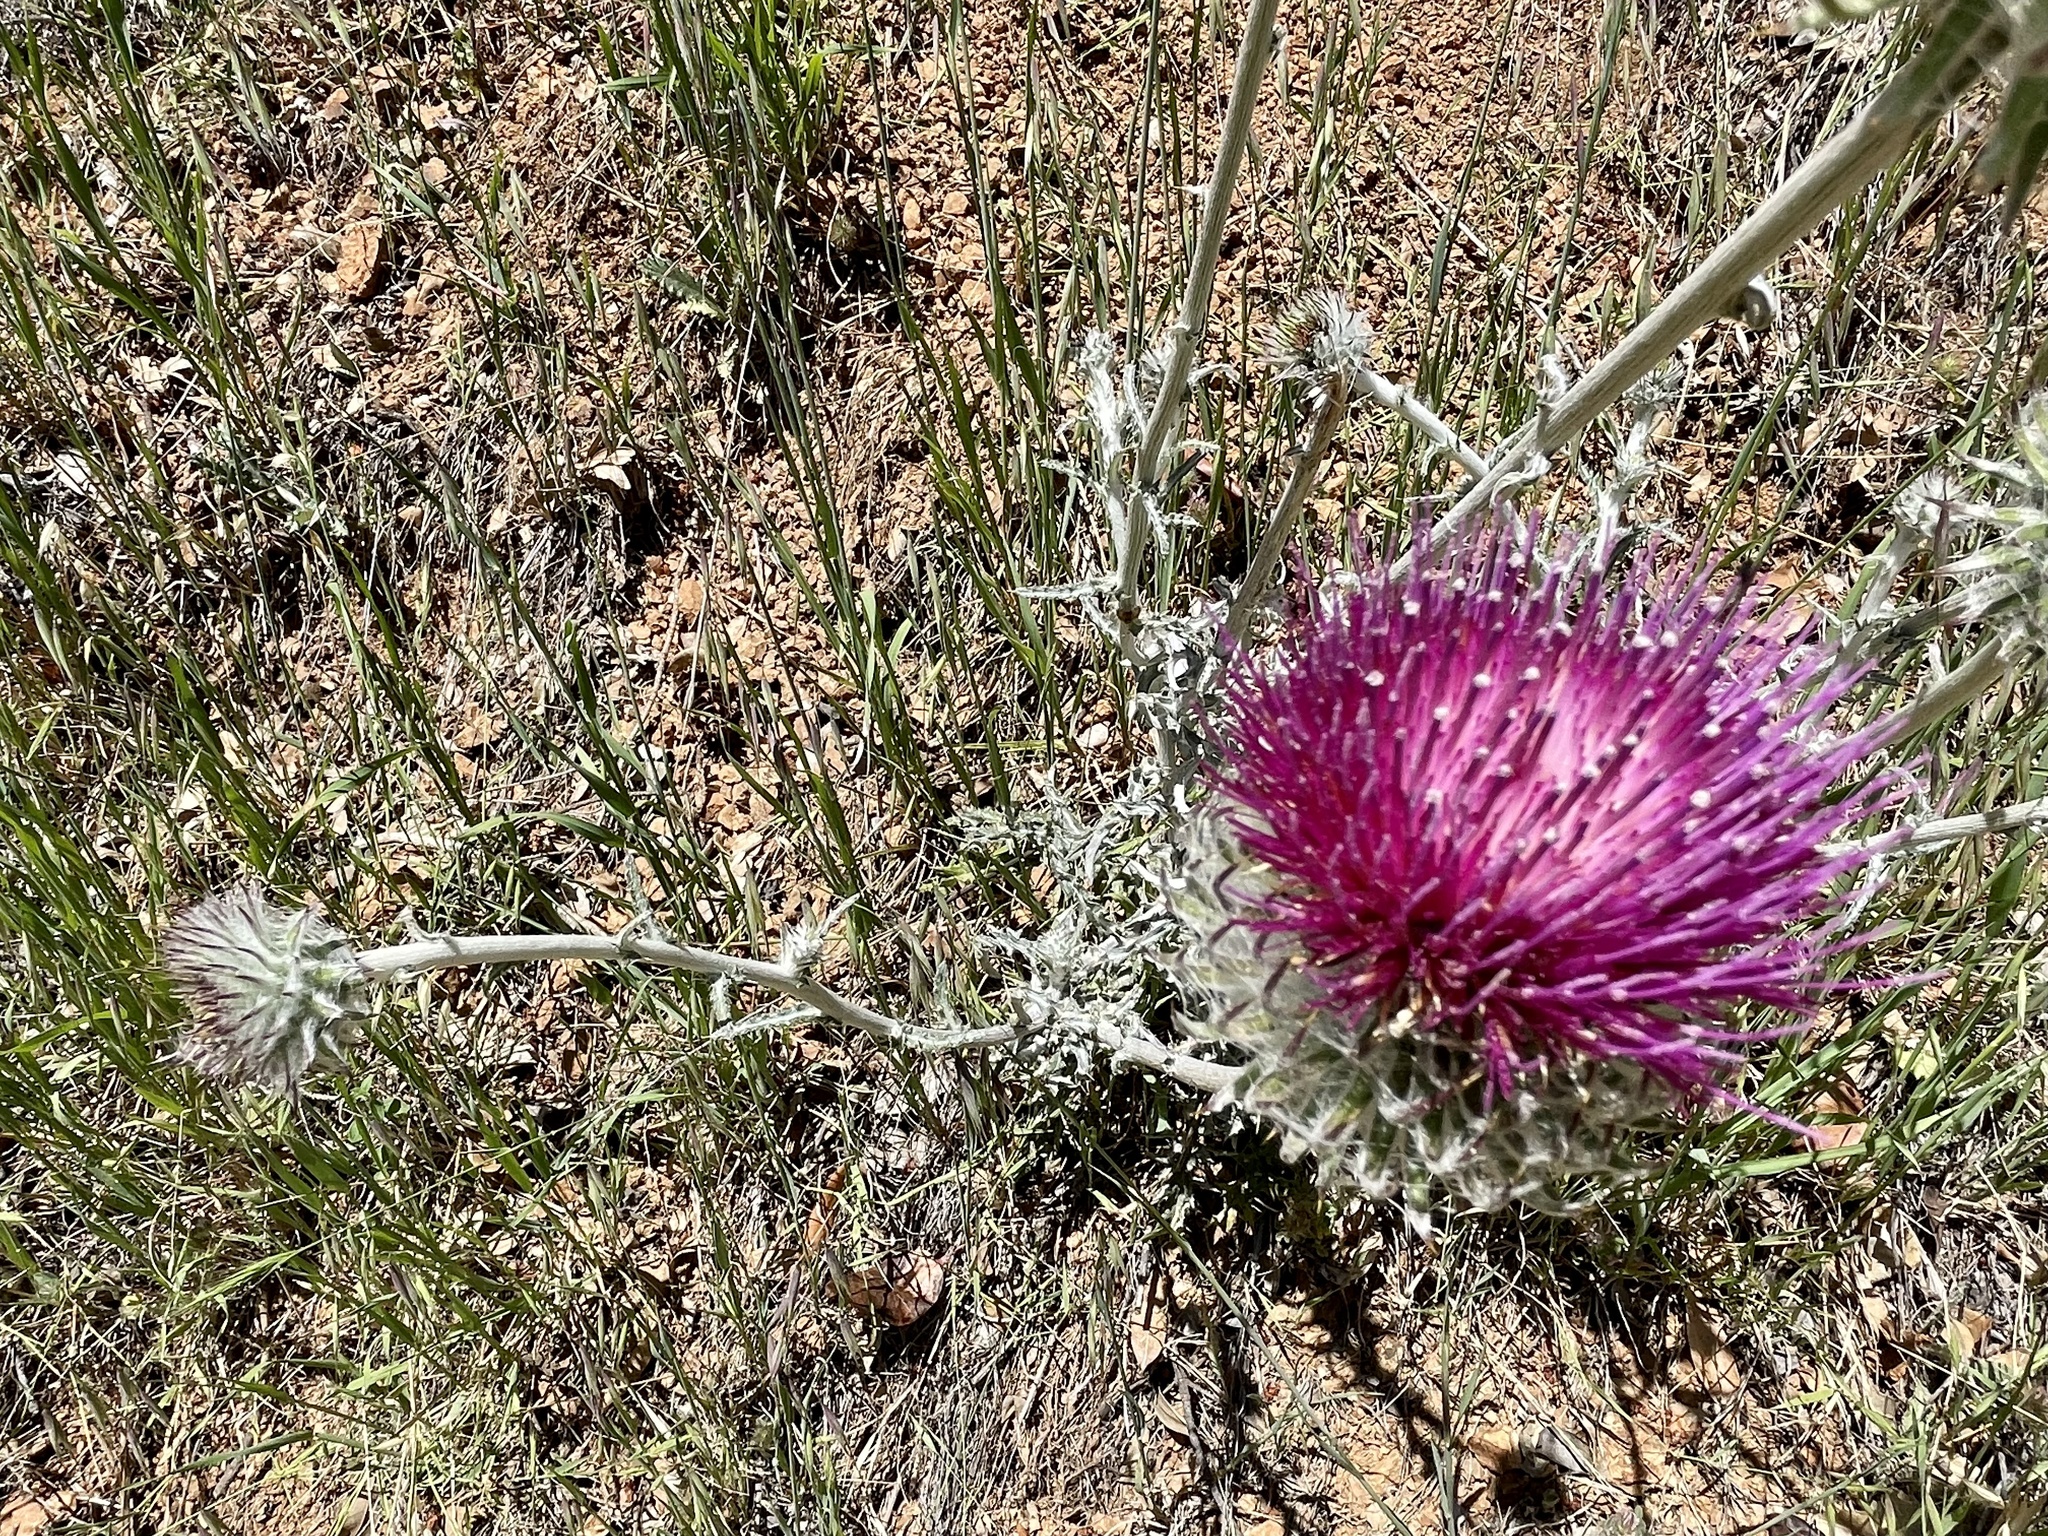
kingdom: Plantae
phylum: Tracheophyta
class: Magnoliopsida
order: Asterales
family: Asteraceae
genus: Cirsium
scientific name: Cirsium occidentale
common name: Western thistle
